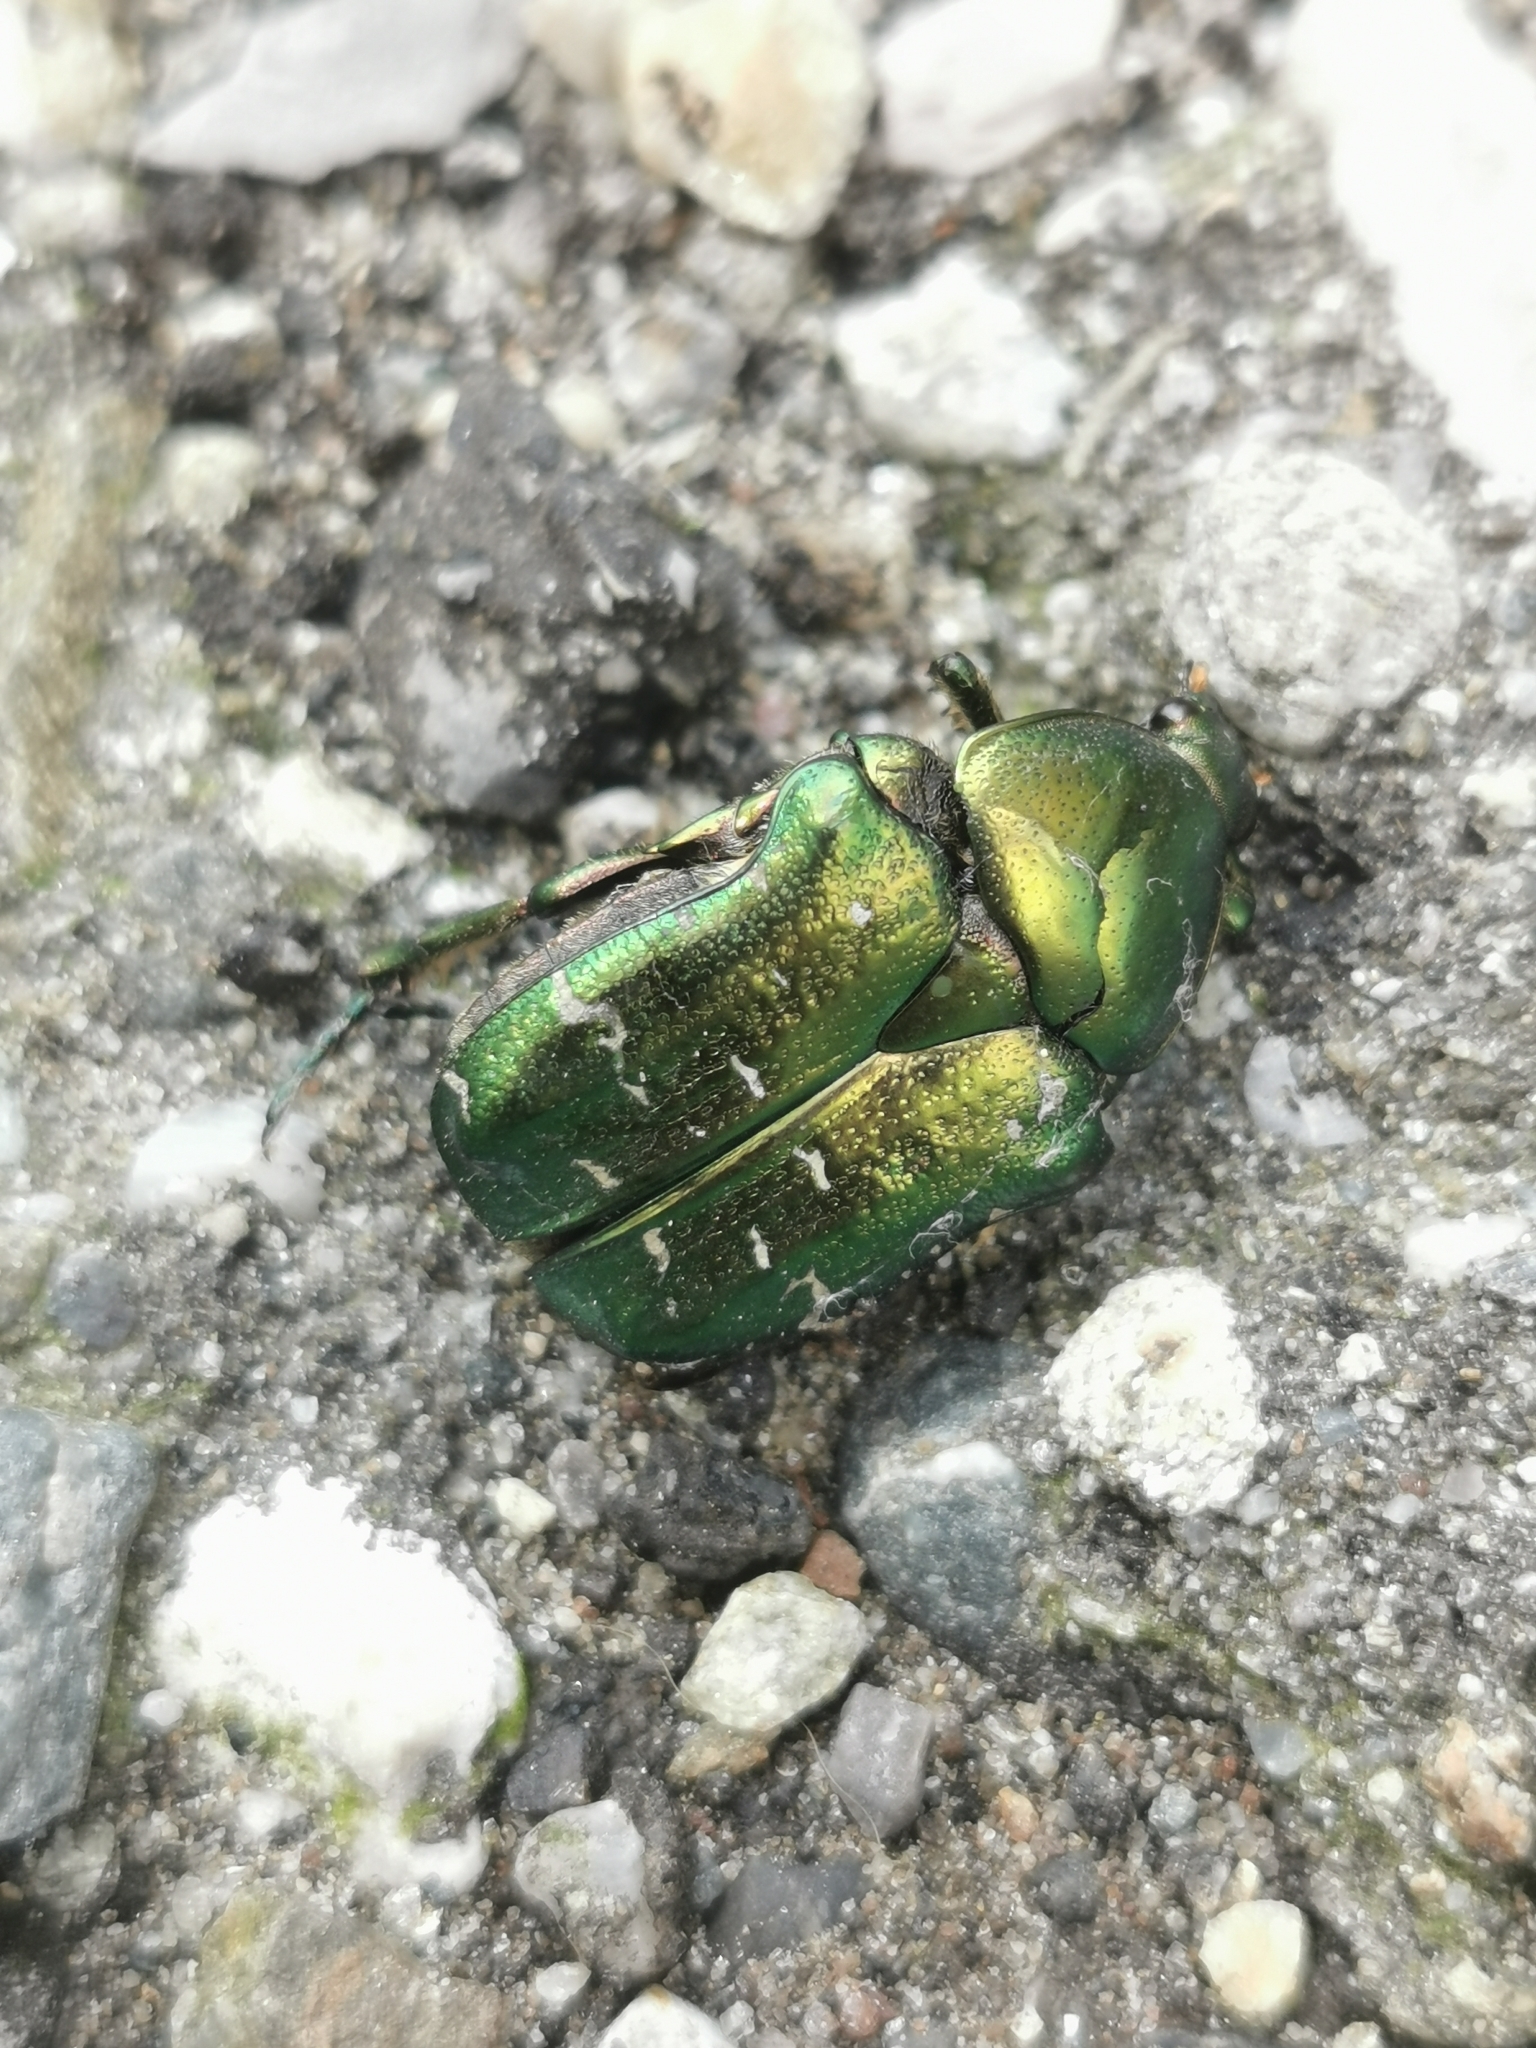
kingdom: Animalia
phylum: Arthropoda
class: Insecta
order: Coleoptera
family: Scarabaeidae
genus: Cetonia
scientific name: Cetonia aurata
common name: Rose chafer
